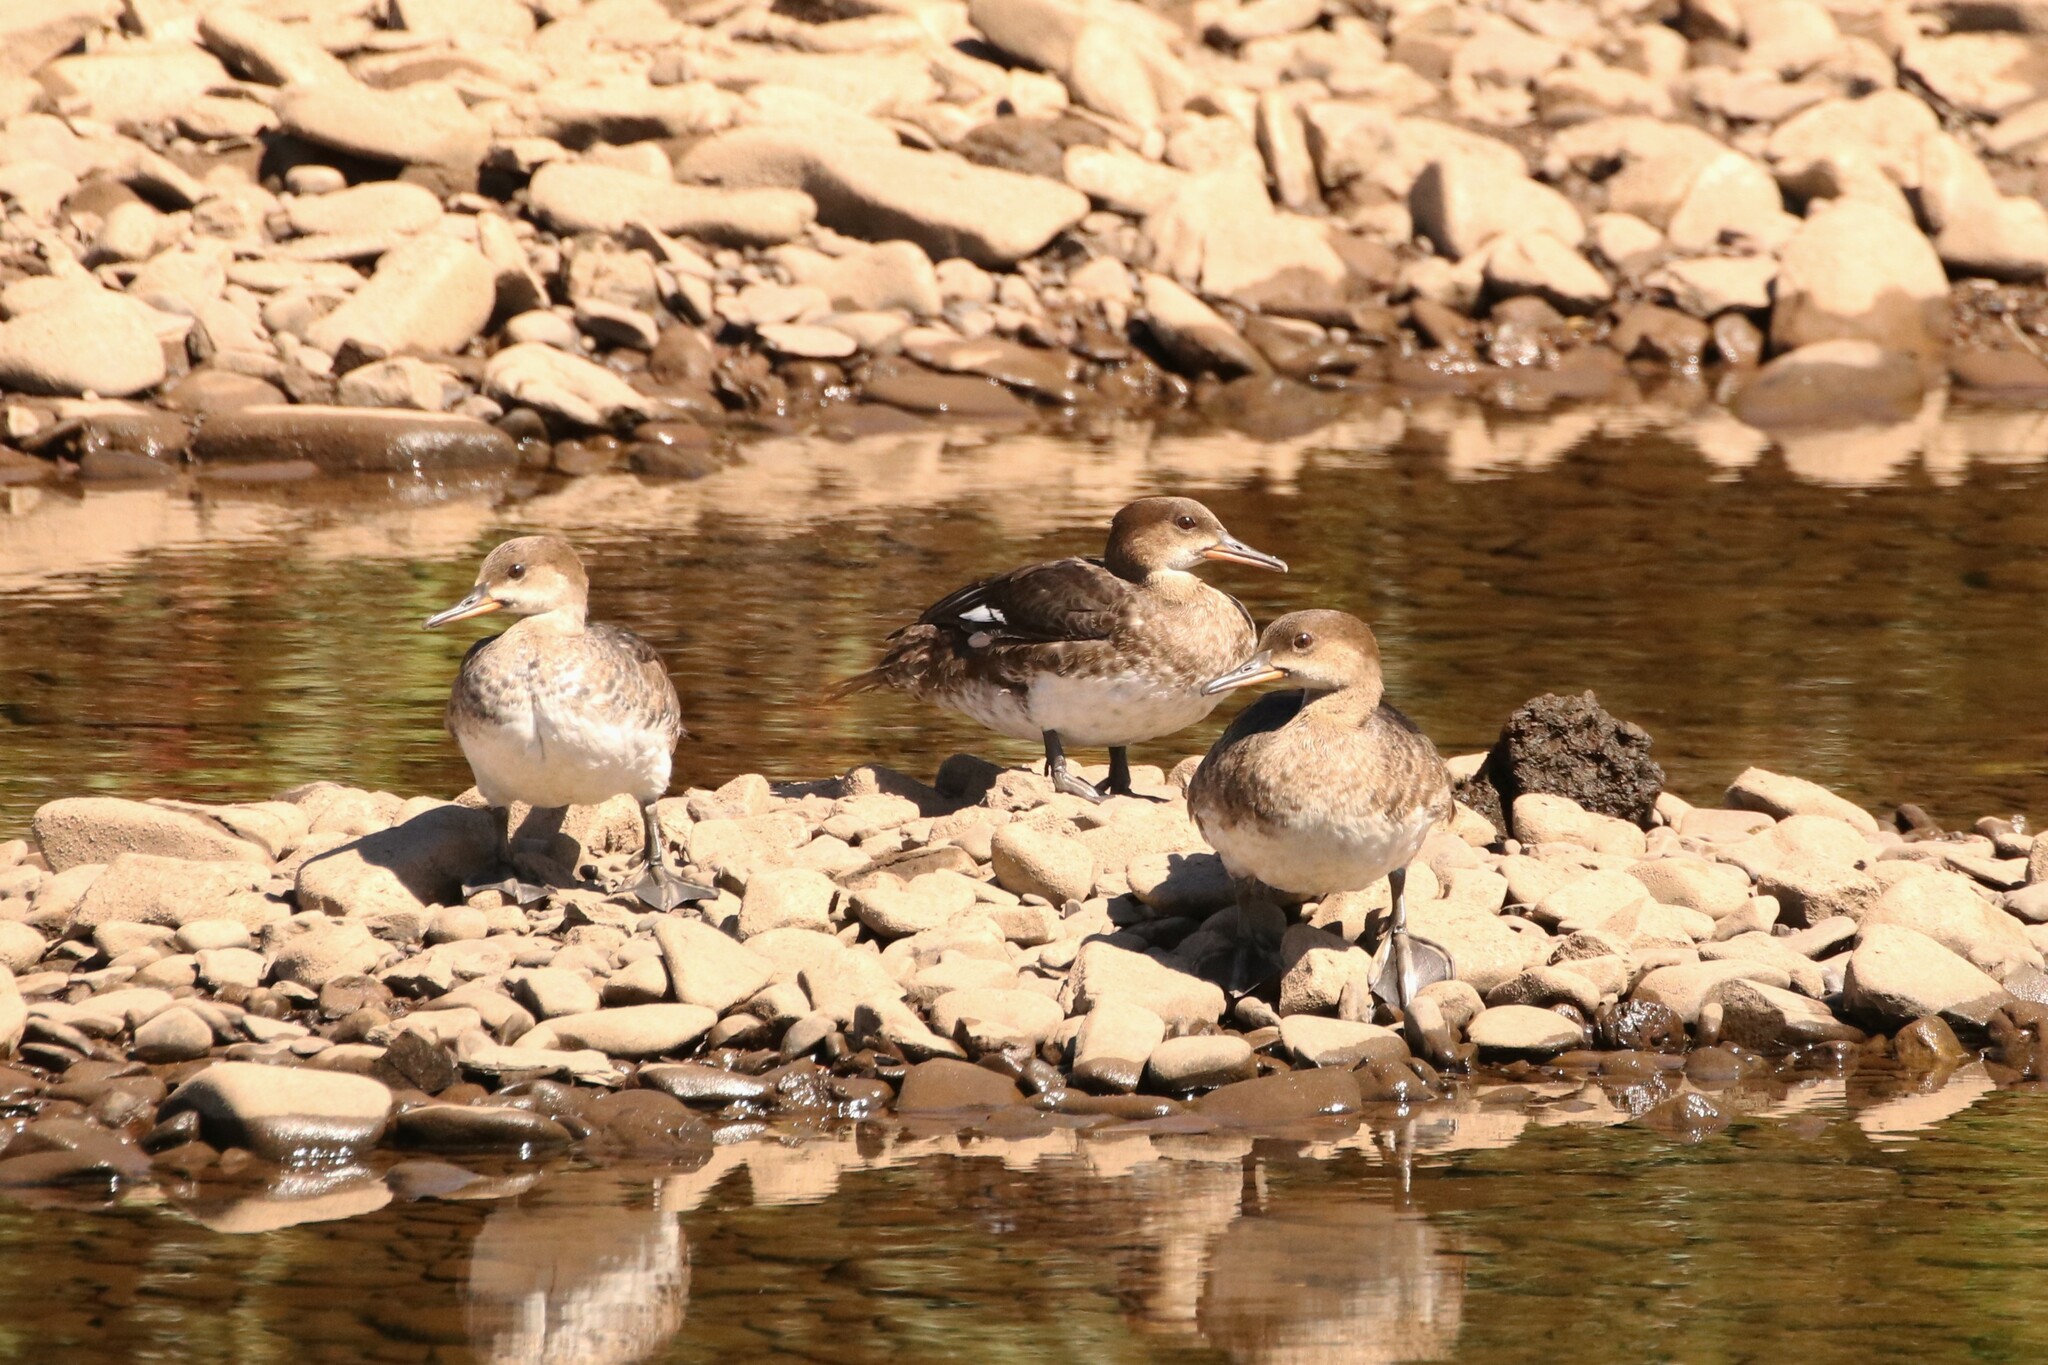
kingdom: Animalia
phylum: Chordata
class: Aves
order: Anseriformes
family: Anatidae
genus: Lophodytes
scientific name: Lophodytes cucullatus
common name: Hooded merganser
